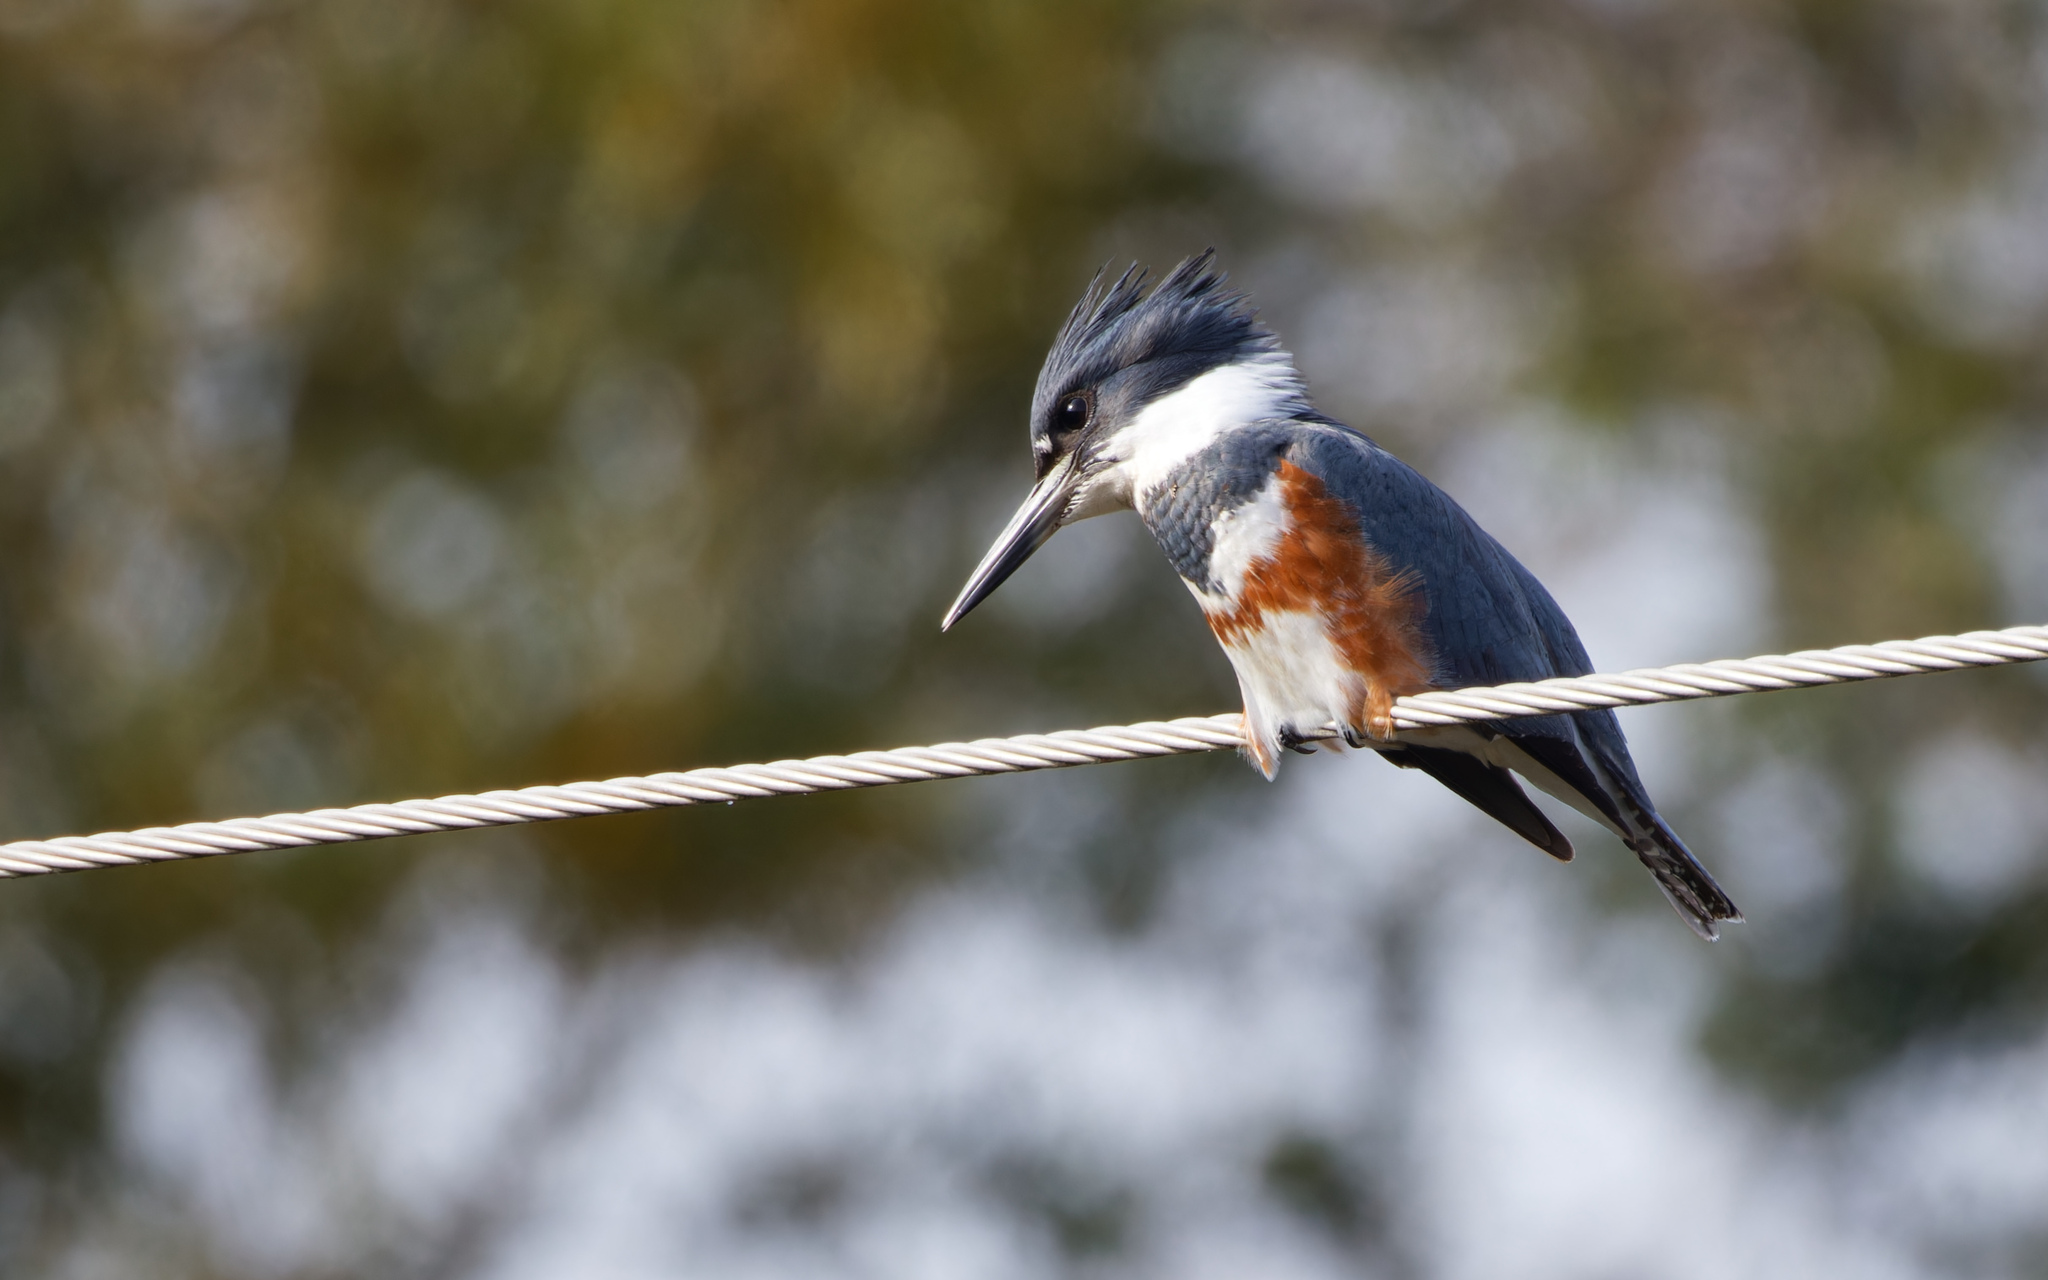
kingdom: Animalia
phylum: Chordata
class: Aves
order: Coraciiformes
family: Alcedinidae
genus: Megaceryle
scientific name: Megaceryle alcyon
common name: Belted kingfisher
